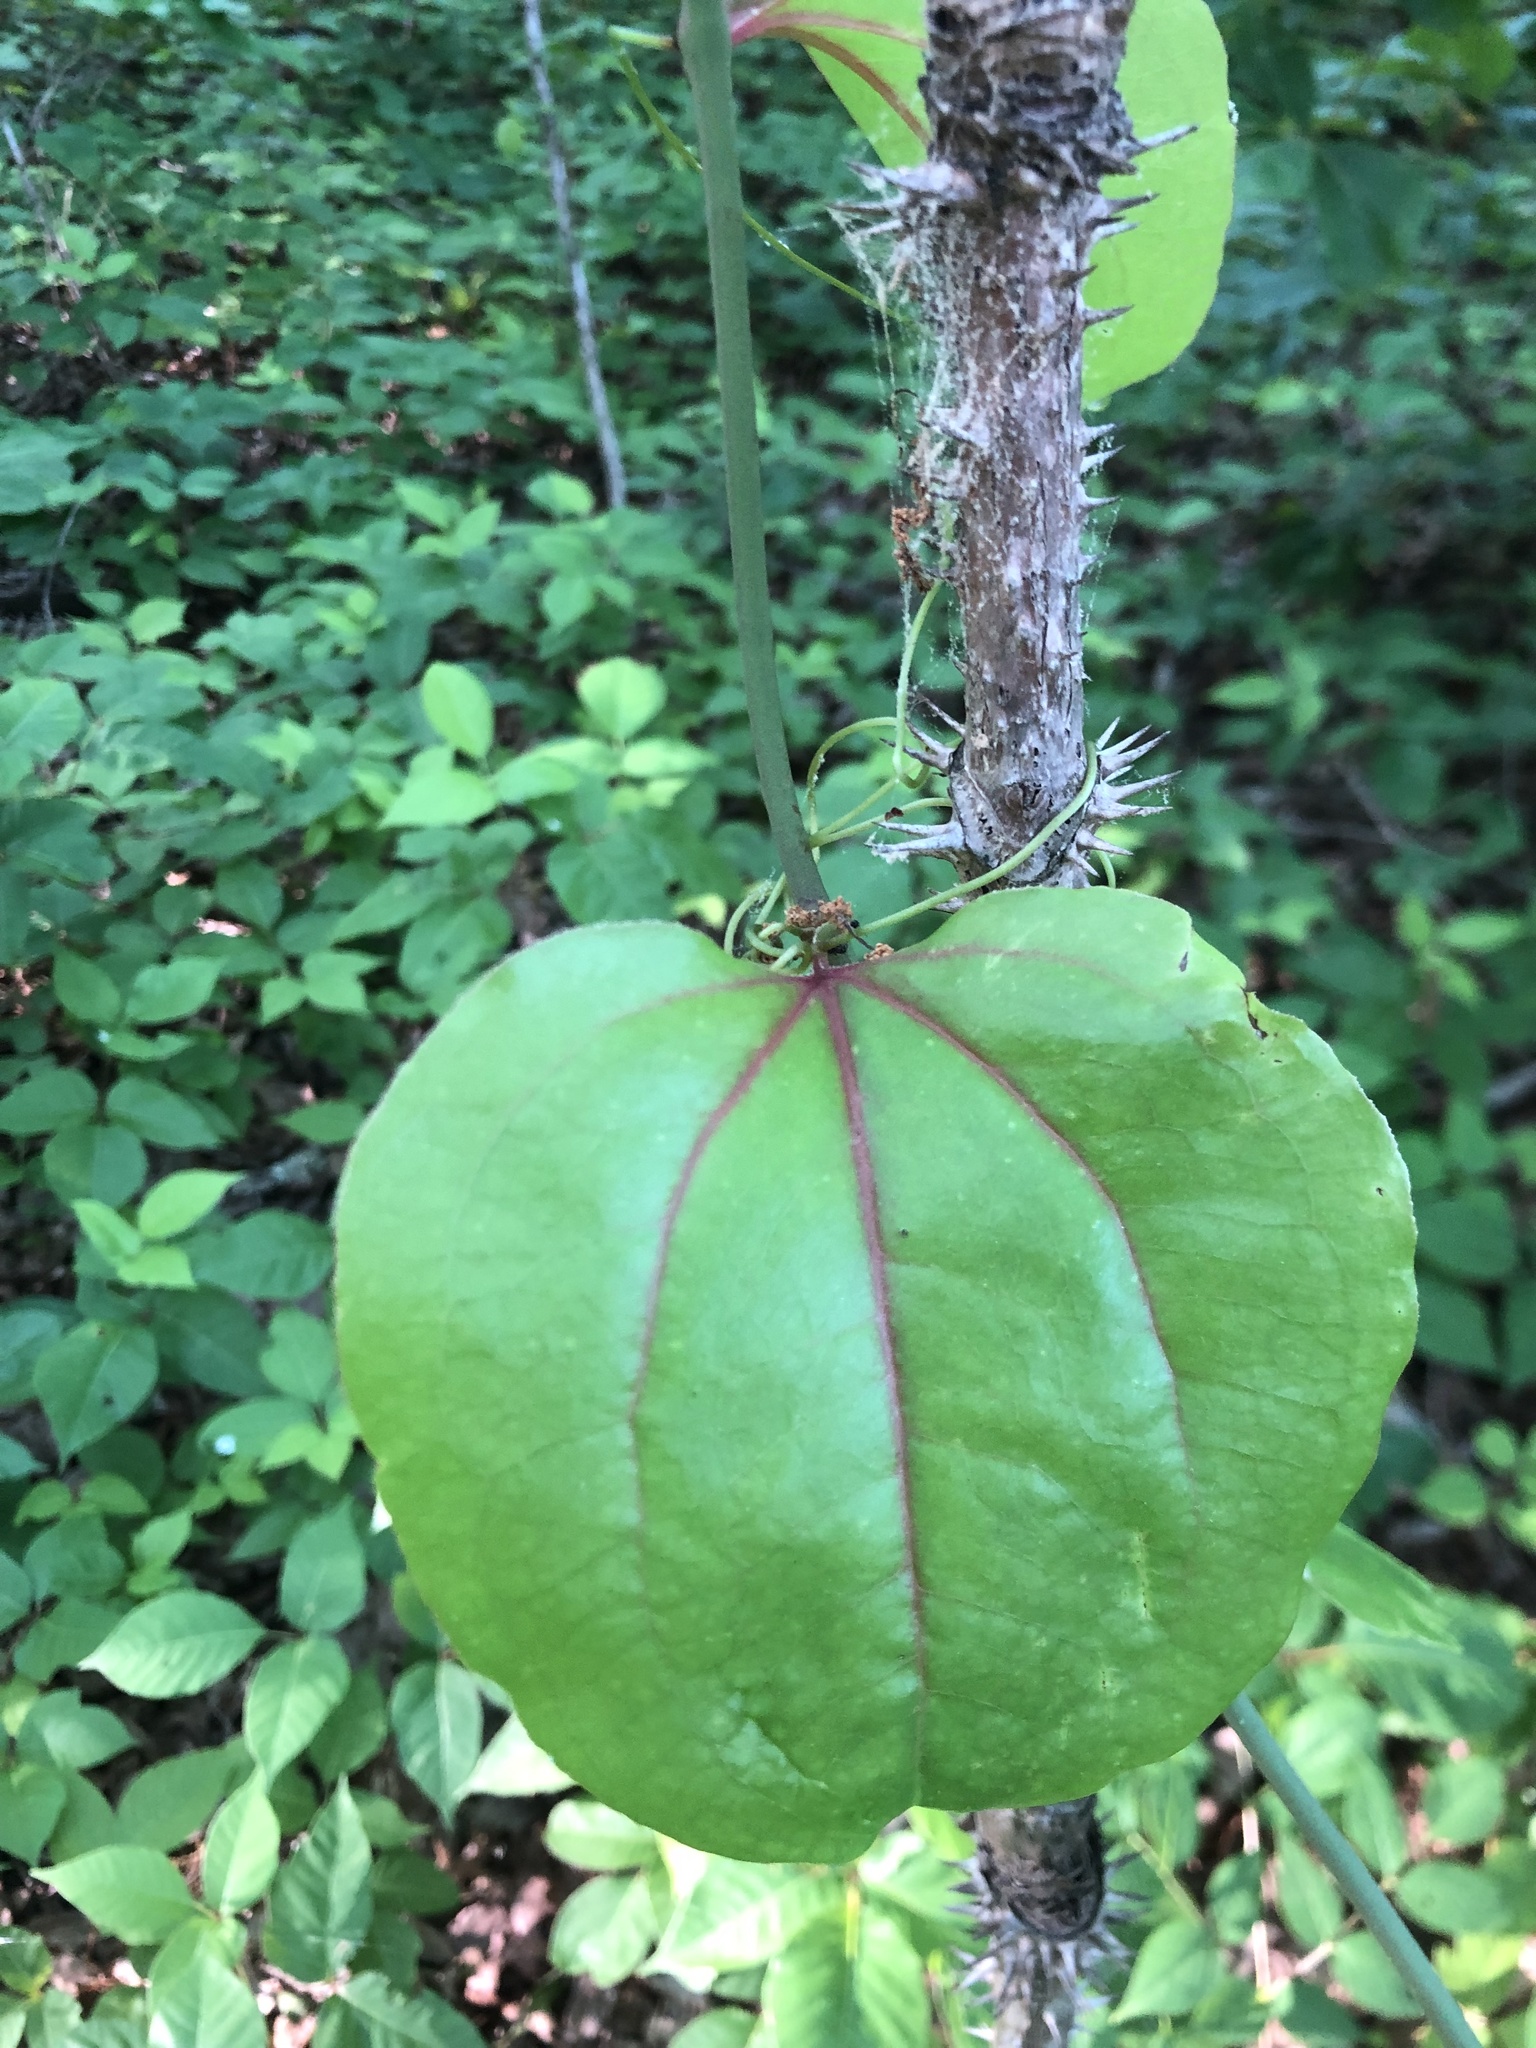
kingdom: Plantae
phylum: Tracheophyta
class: Liliopsida
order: Liliales
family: Smilacaceae
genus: Smilax
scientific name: Smilax rotundifolia
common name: Bullbriar
